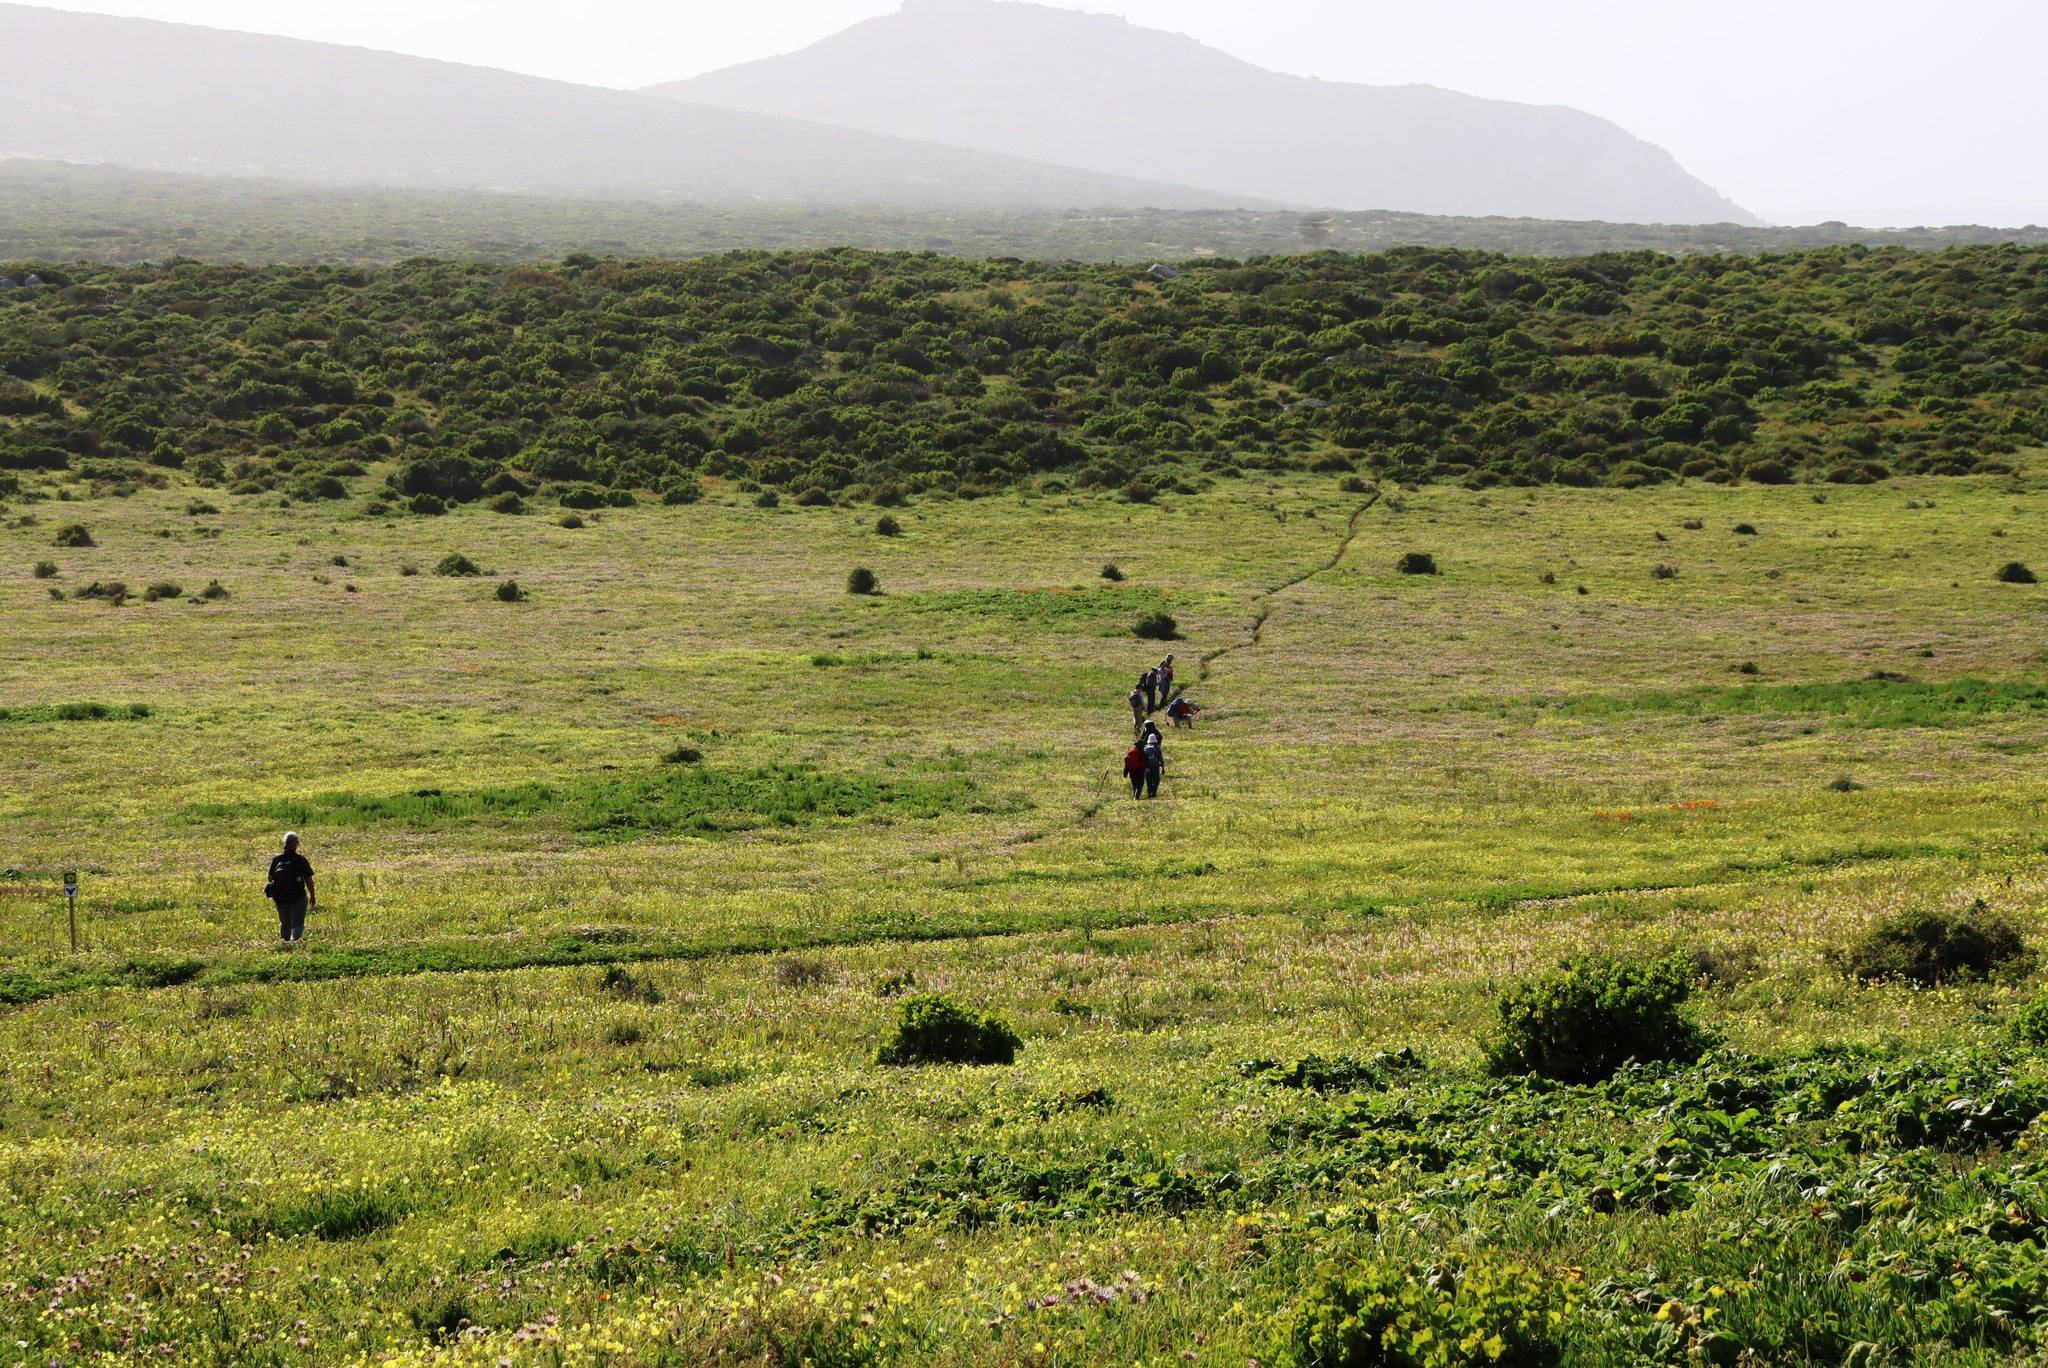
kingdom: Plantae
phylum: Tracheophyta
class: Magnoliopsida
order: Oxalidales
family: Oxalidaceae
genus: Oxalis
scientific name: Oxalis pes-caprae
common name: Bermuda-buttercup
